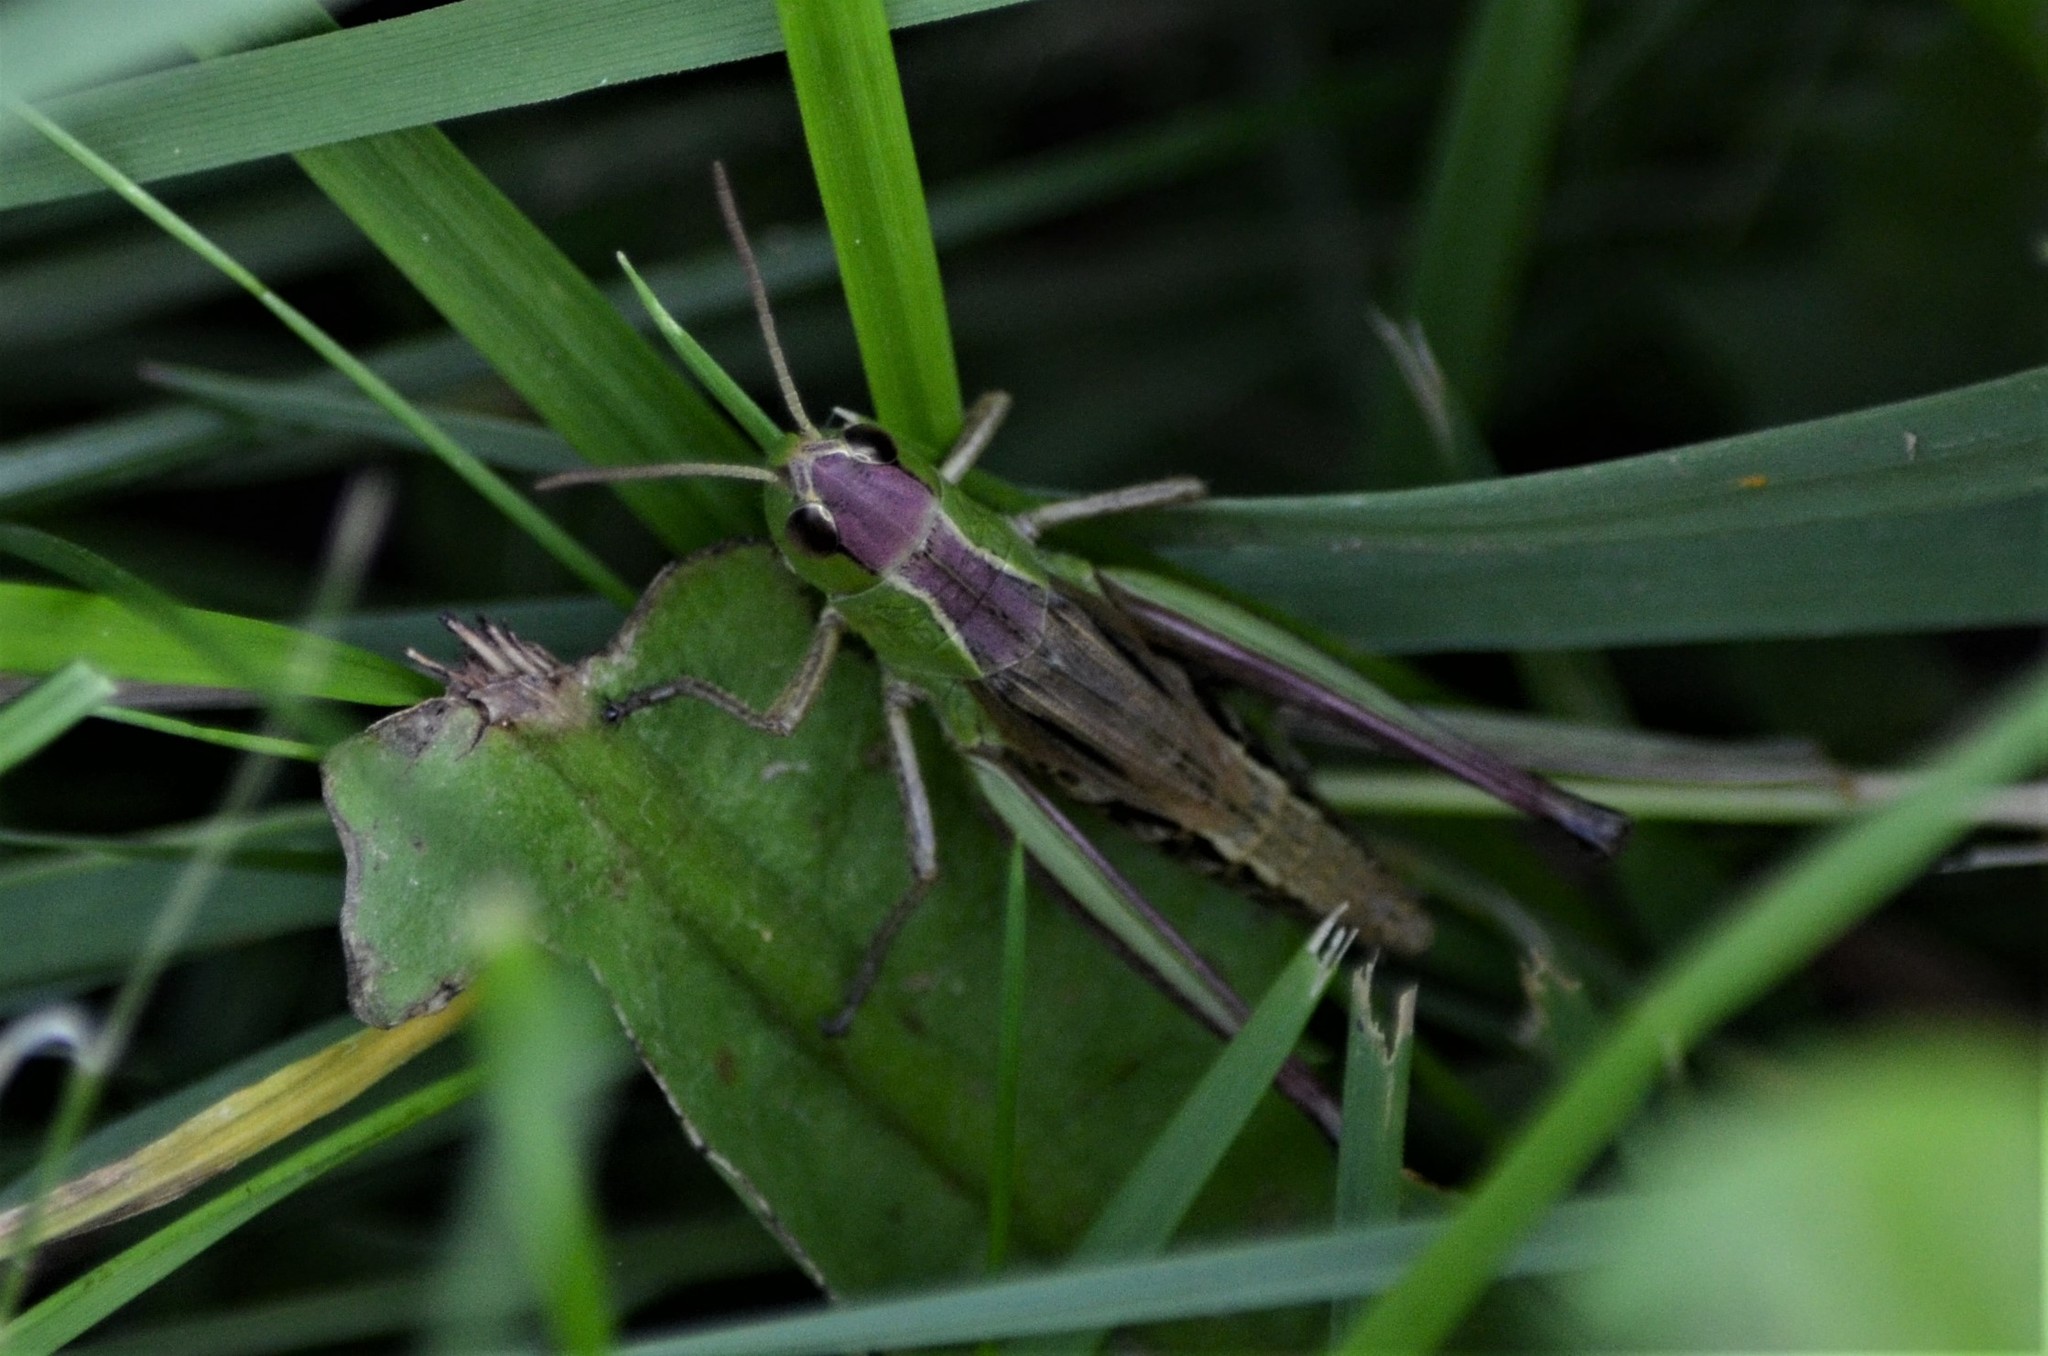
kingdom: Animalia
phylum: Arthropoda
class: Insecta
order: Orthoptera
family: Acrididae
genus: Pseudochorthippus
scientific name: Pseudochorthippus parallelus
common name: Meadow grasshopper
